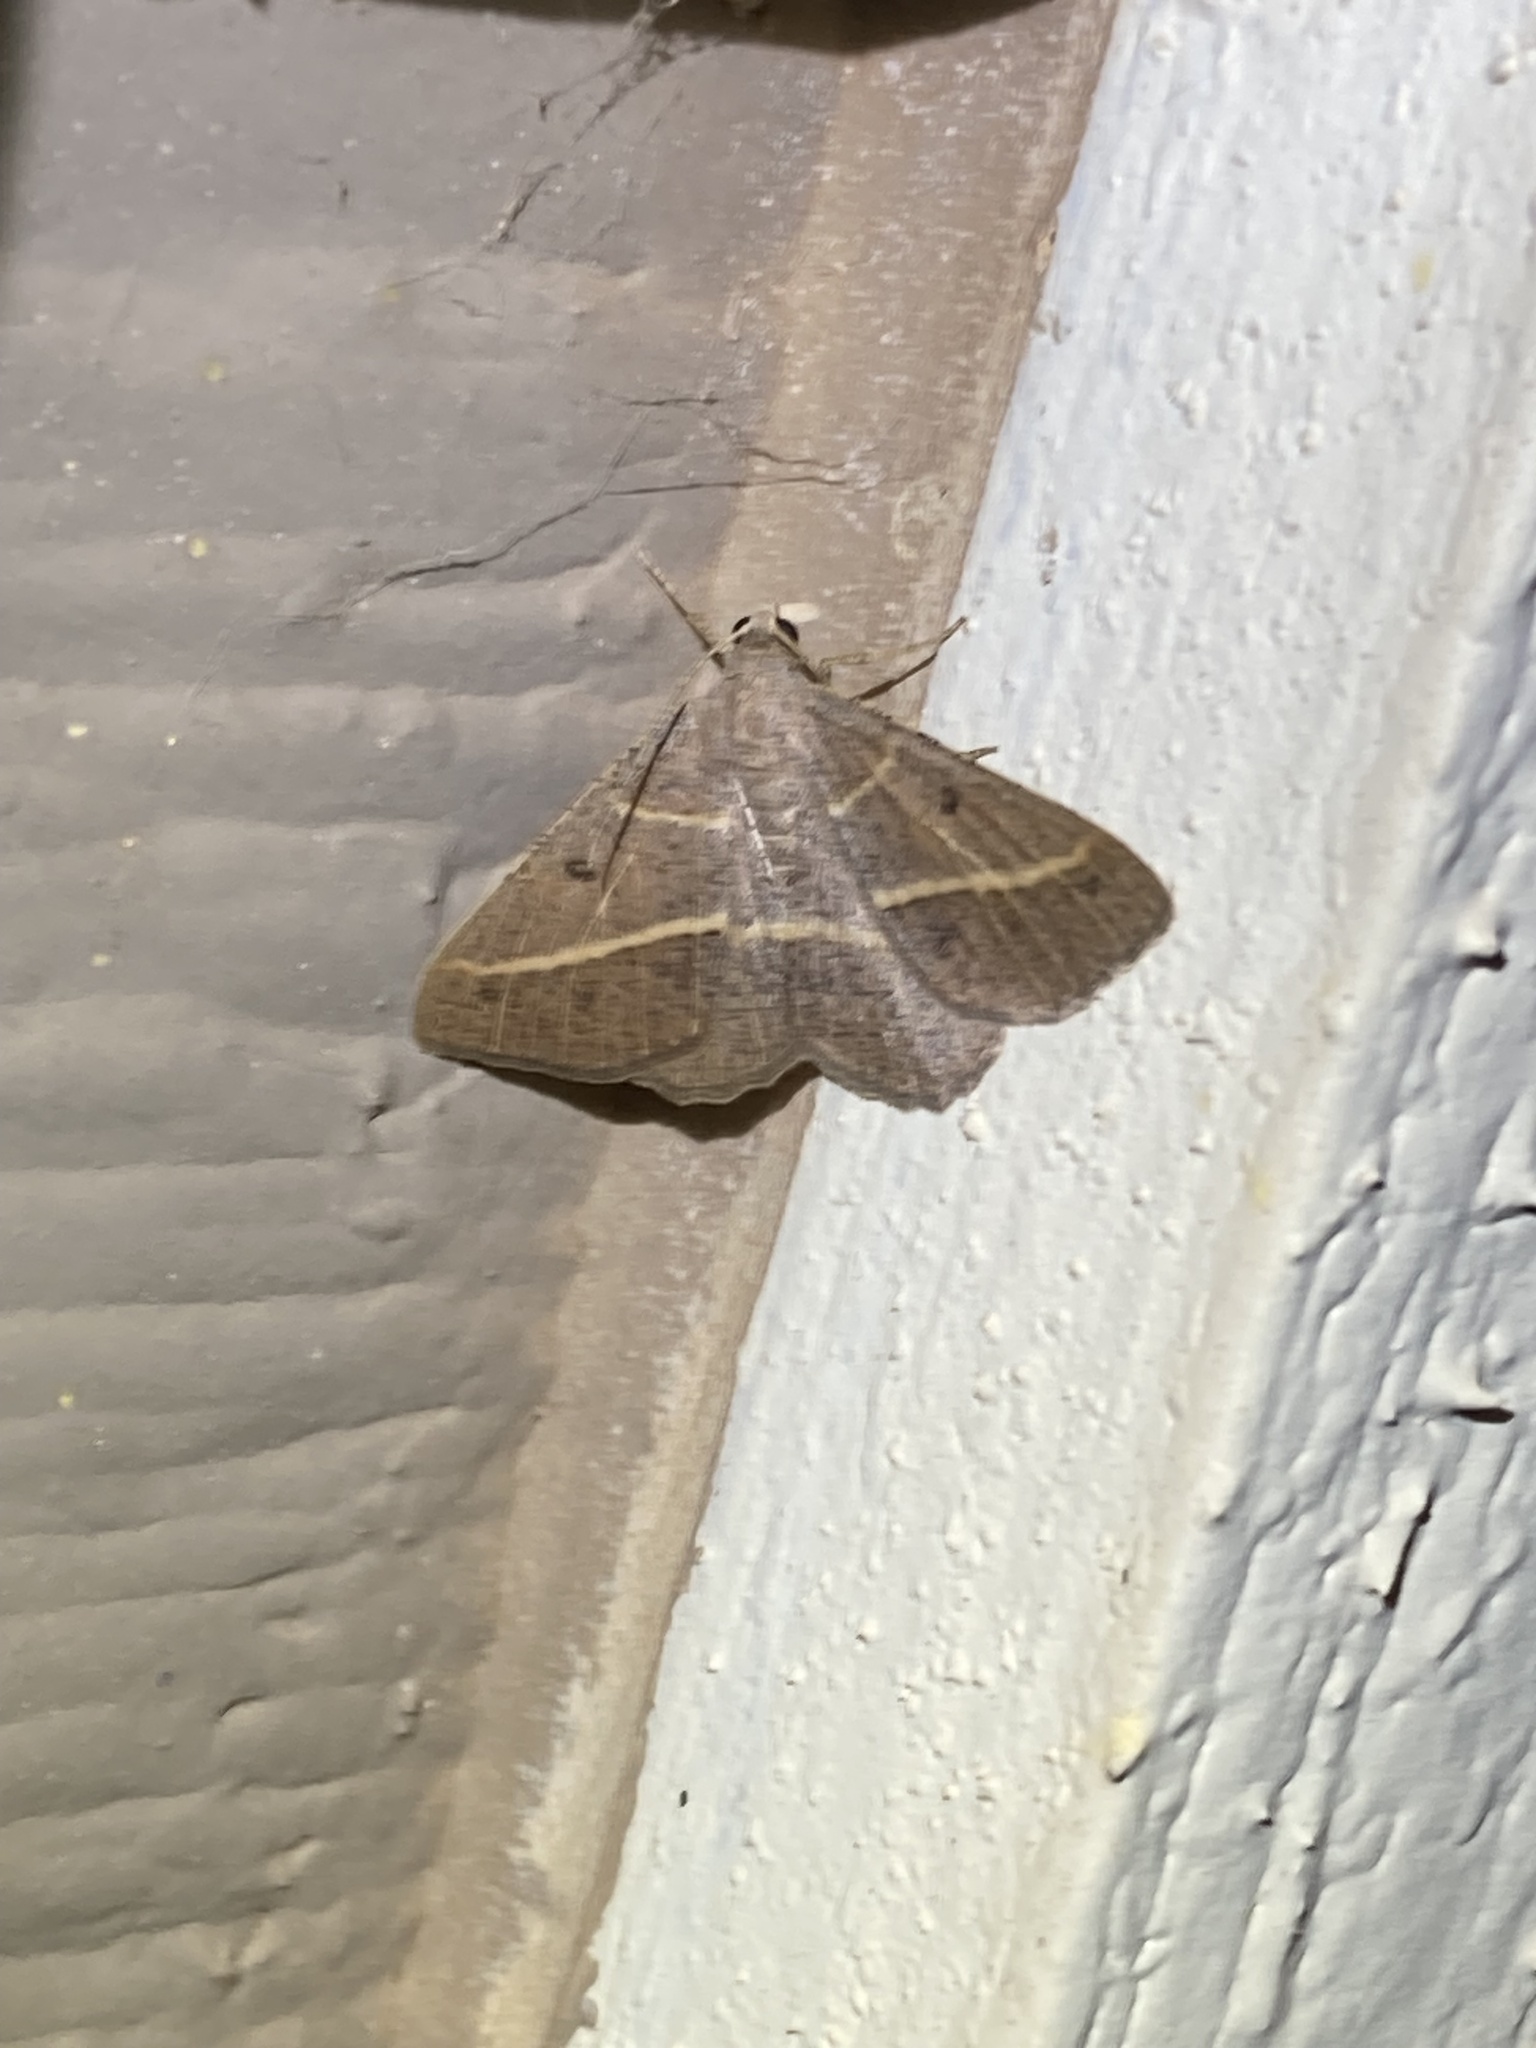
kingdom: Animalia
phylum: Arthropoda
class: Insecta
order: Lepidoptera
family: Geometridae
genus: Digrammia
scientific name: Digrammia irrorata
